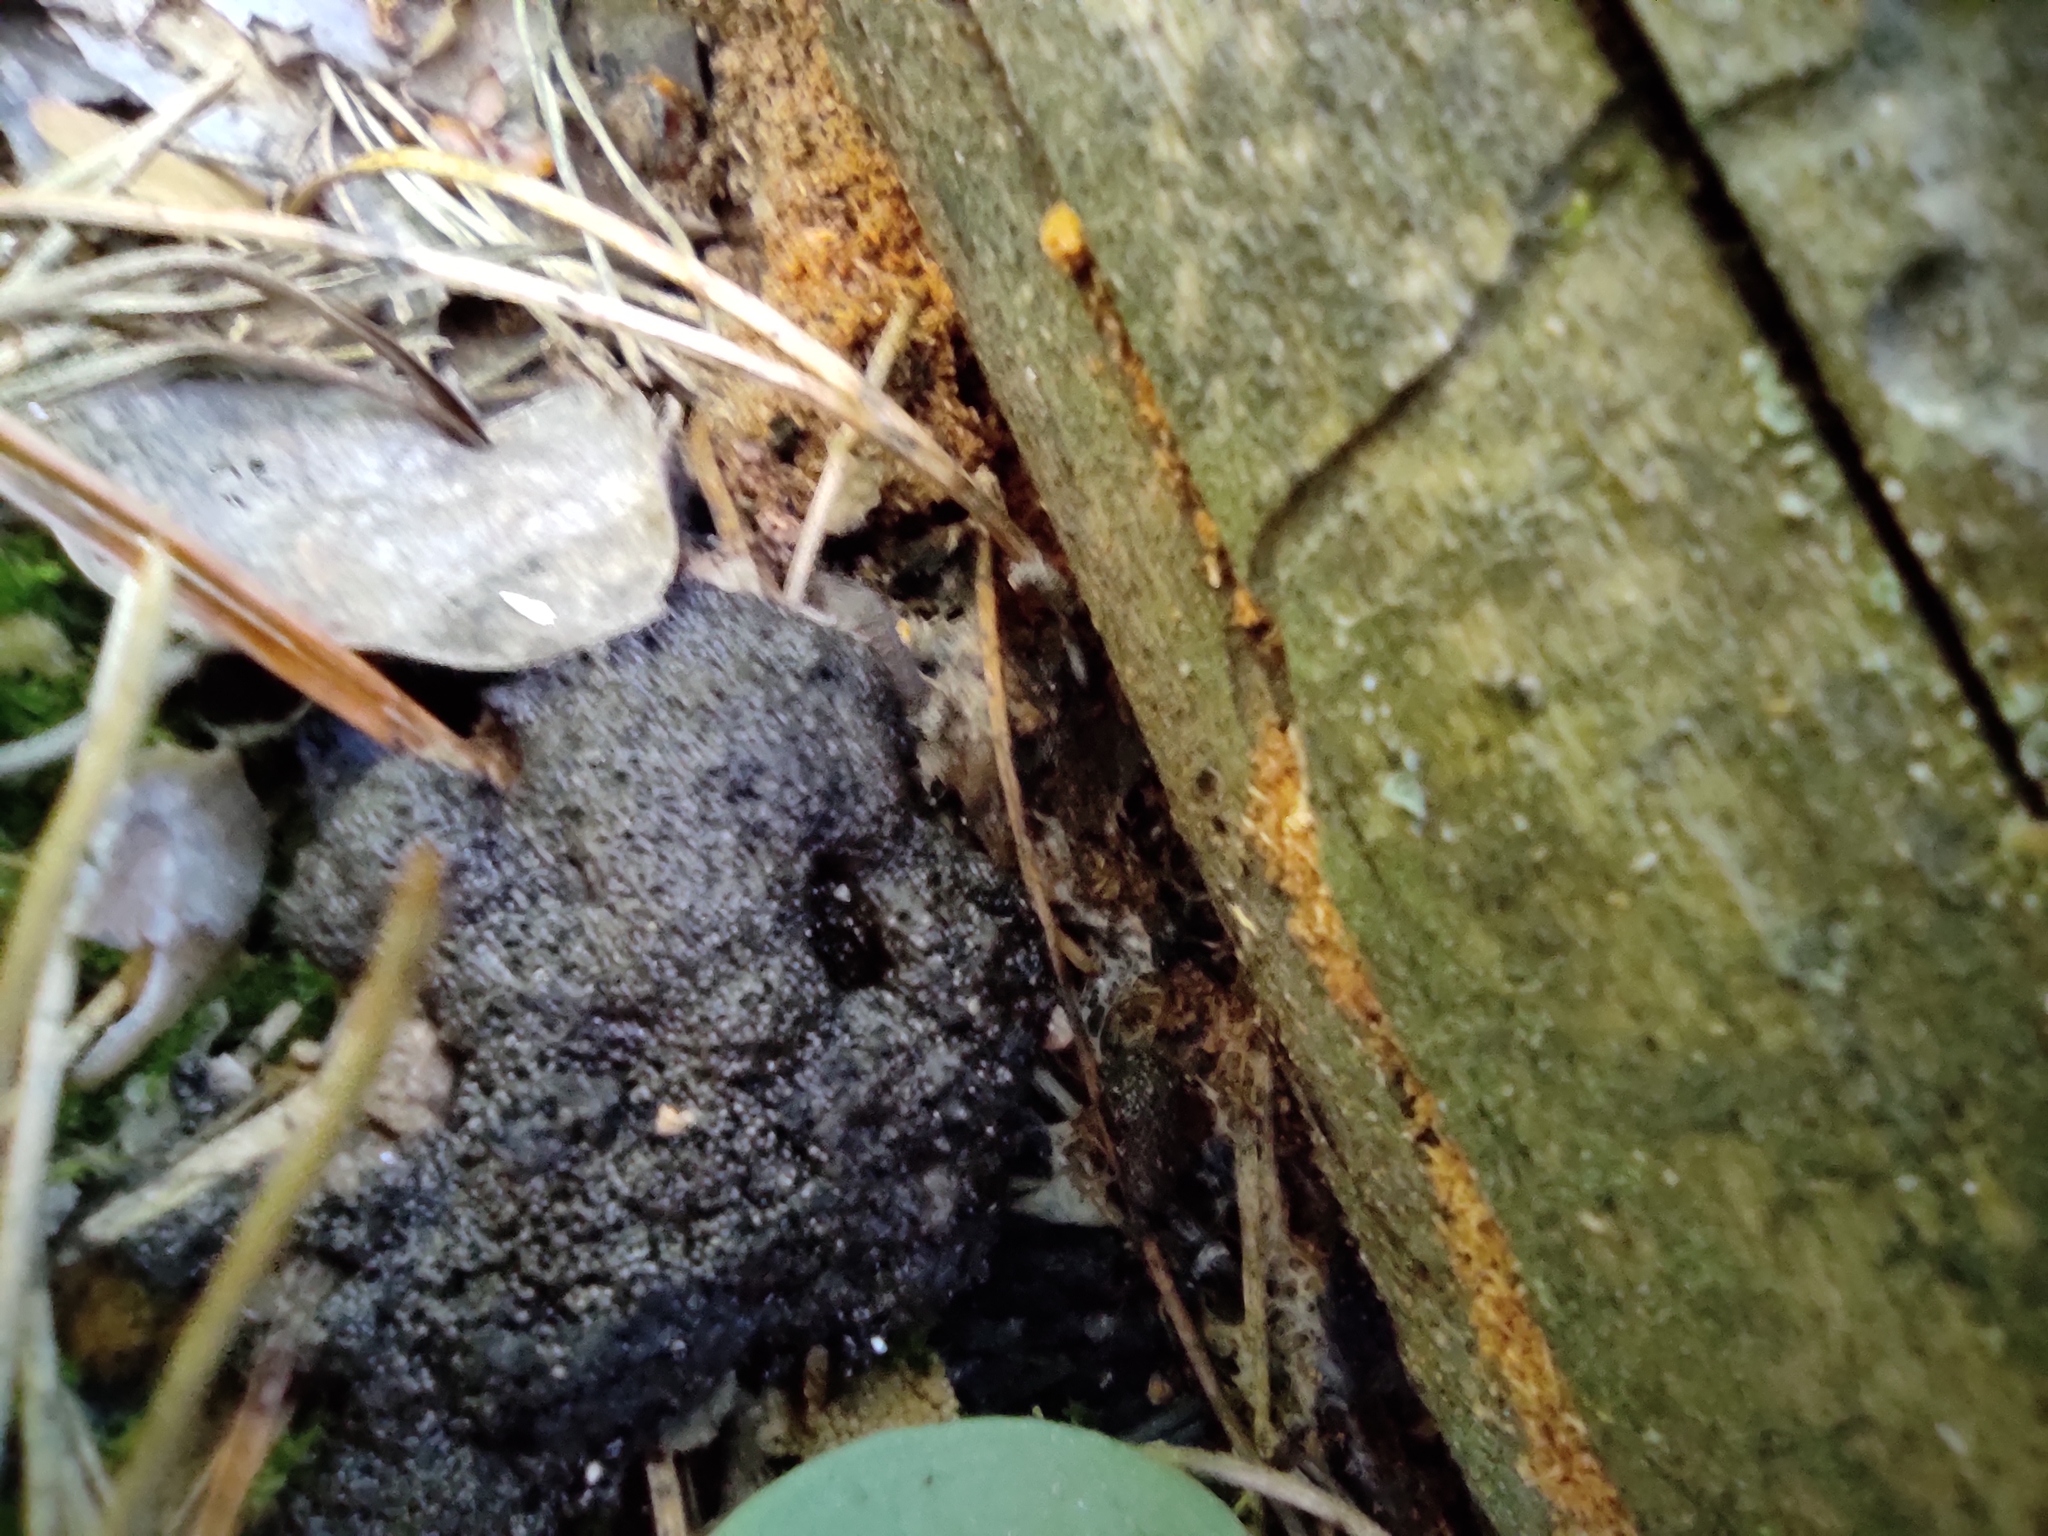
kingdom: Plantae
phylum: Tracheophyta
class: Liliopsida
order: Asparagales
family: Orchidaceae
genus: Hemipilia
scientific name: Hemipilia cucullata
